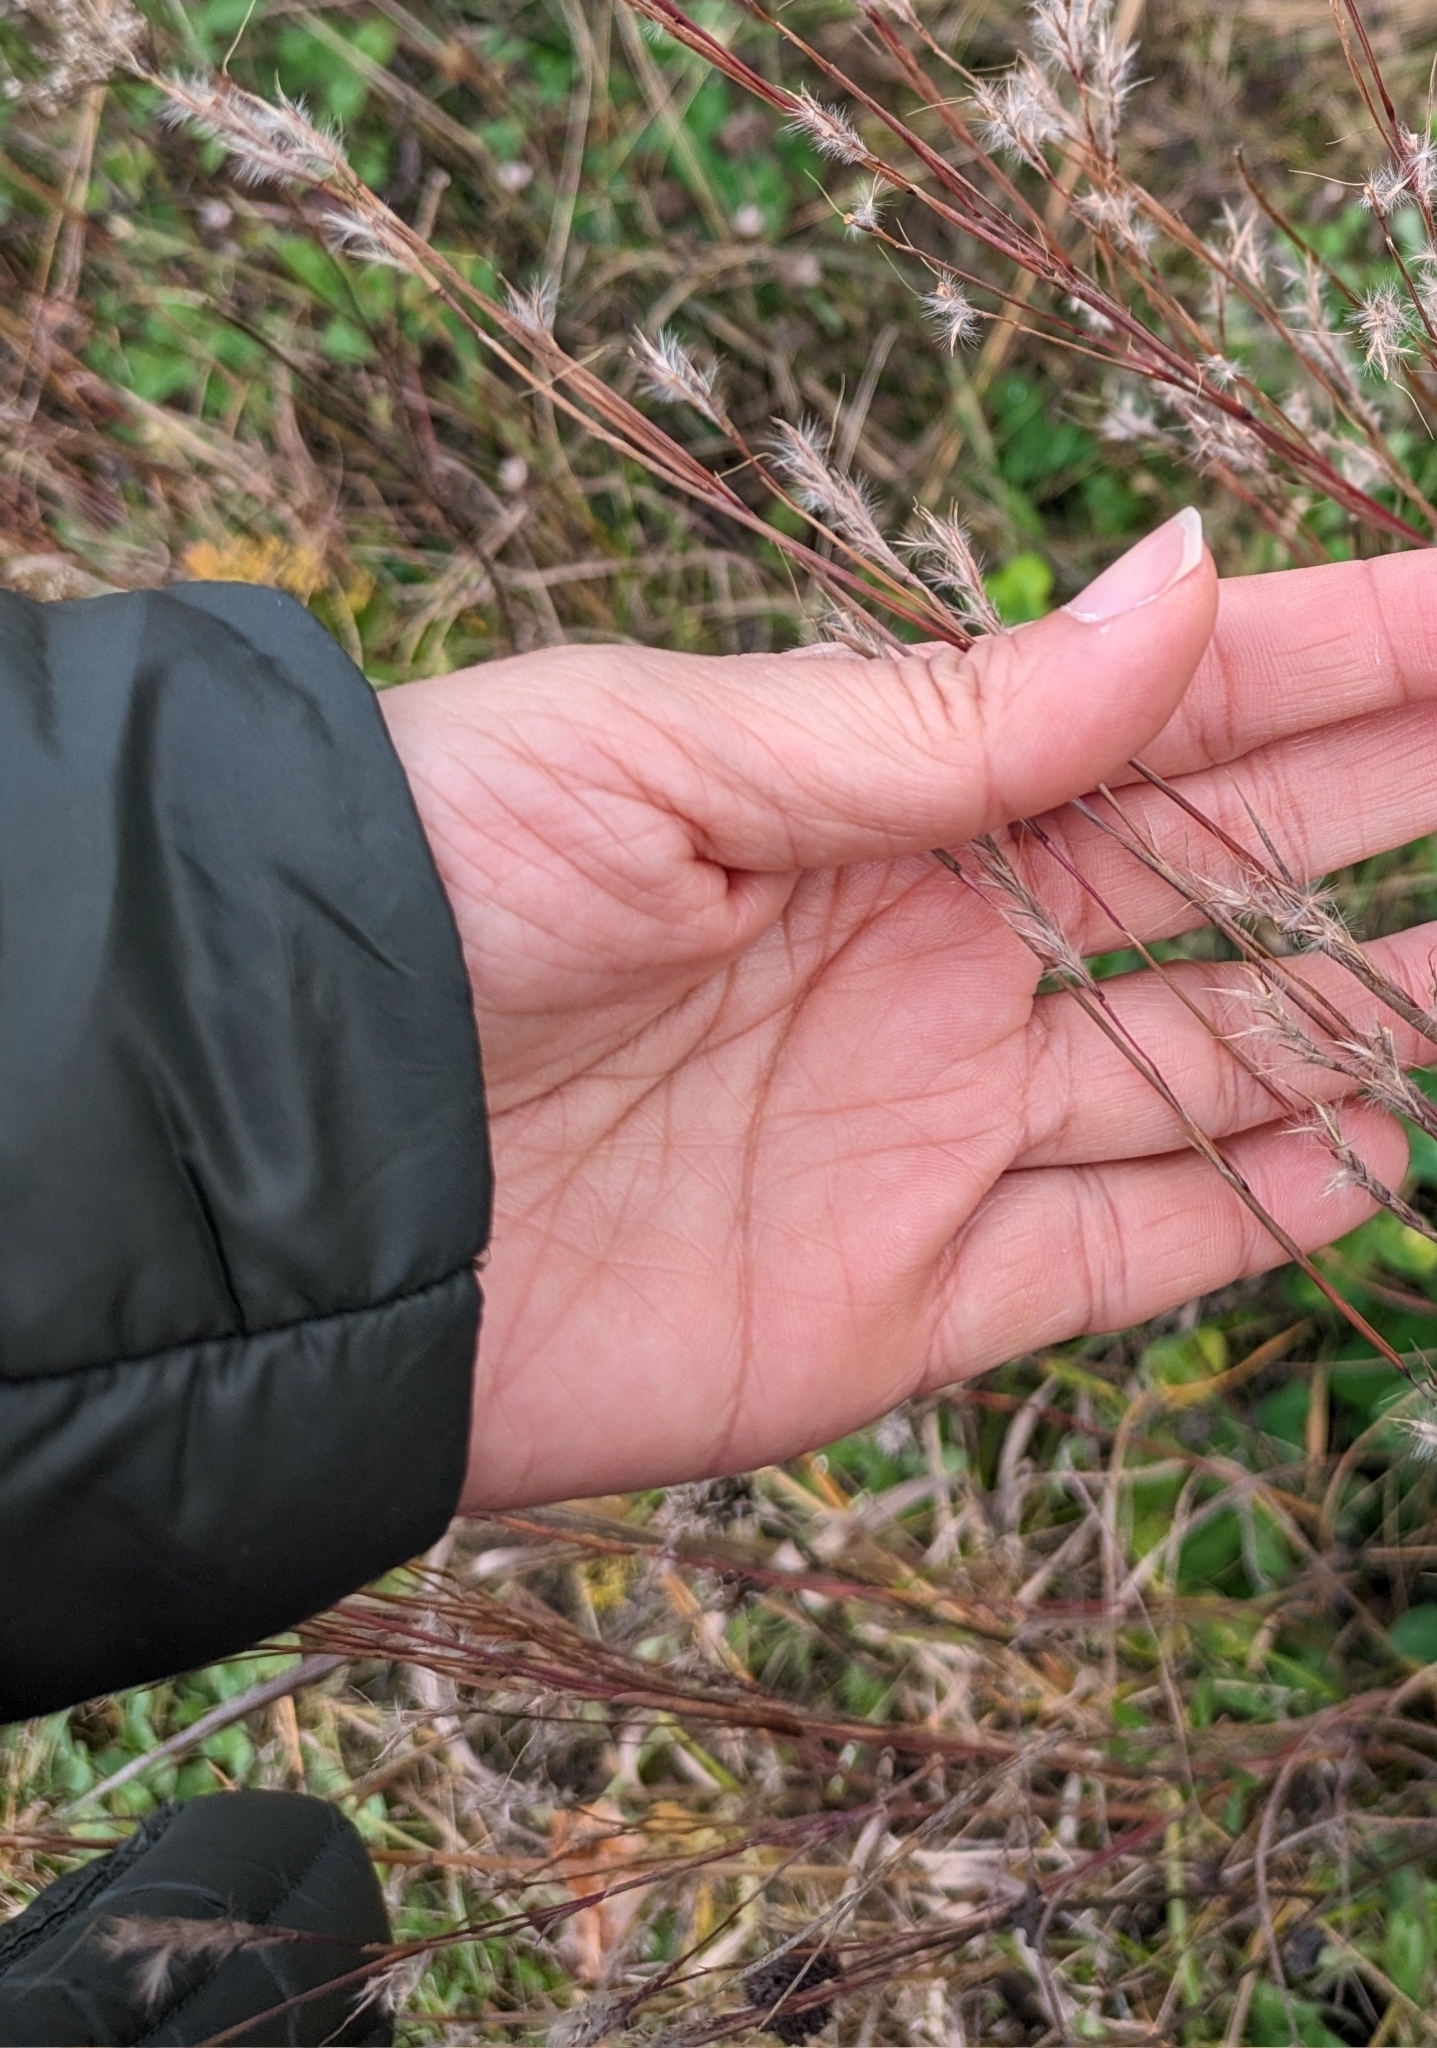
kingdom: Plantae
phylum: Tracheophyta
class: Liliopsida
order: Poales
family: Poaceae
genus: Schizachyrium
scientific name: Schizachyrium scoparium
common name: Little bluestem
